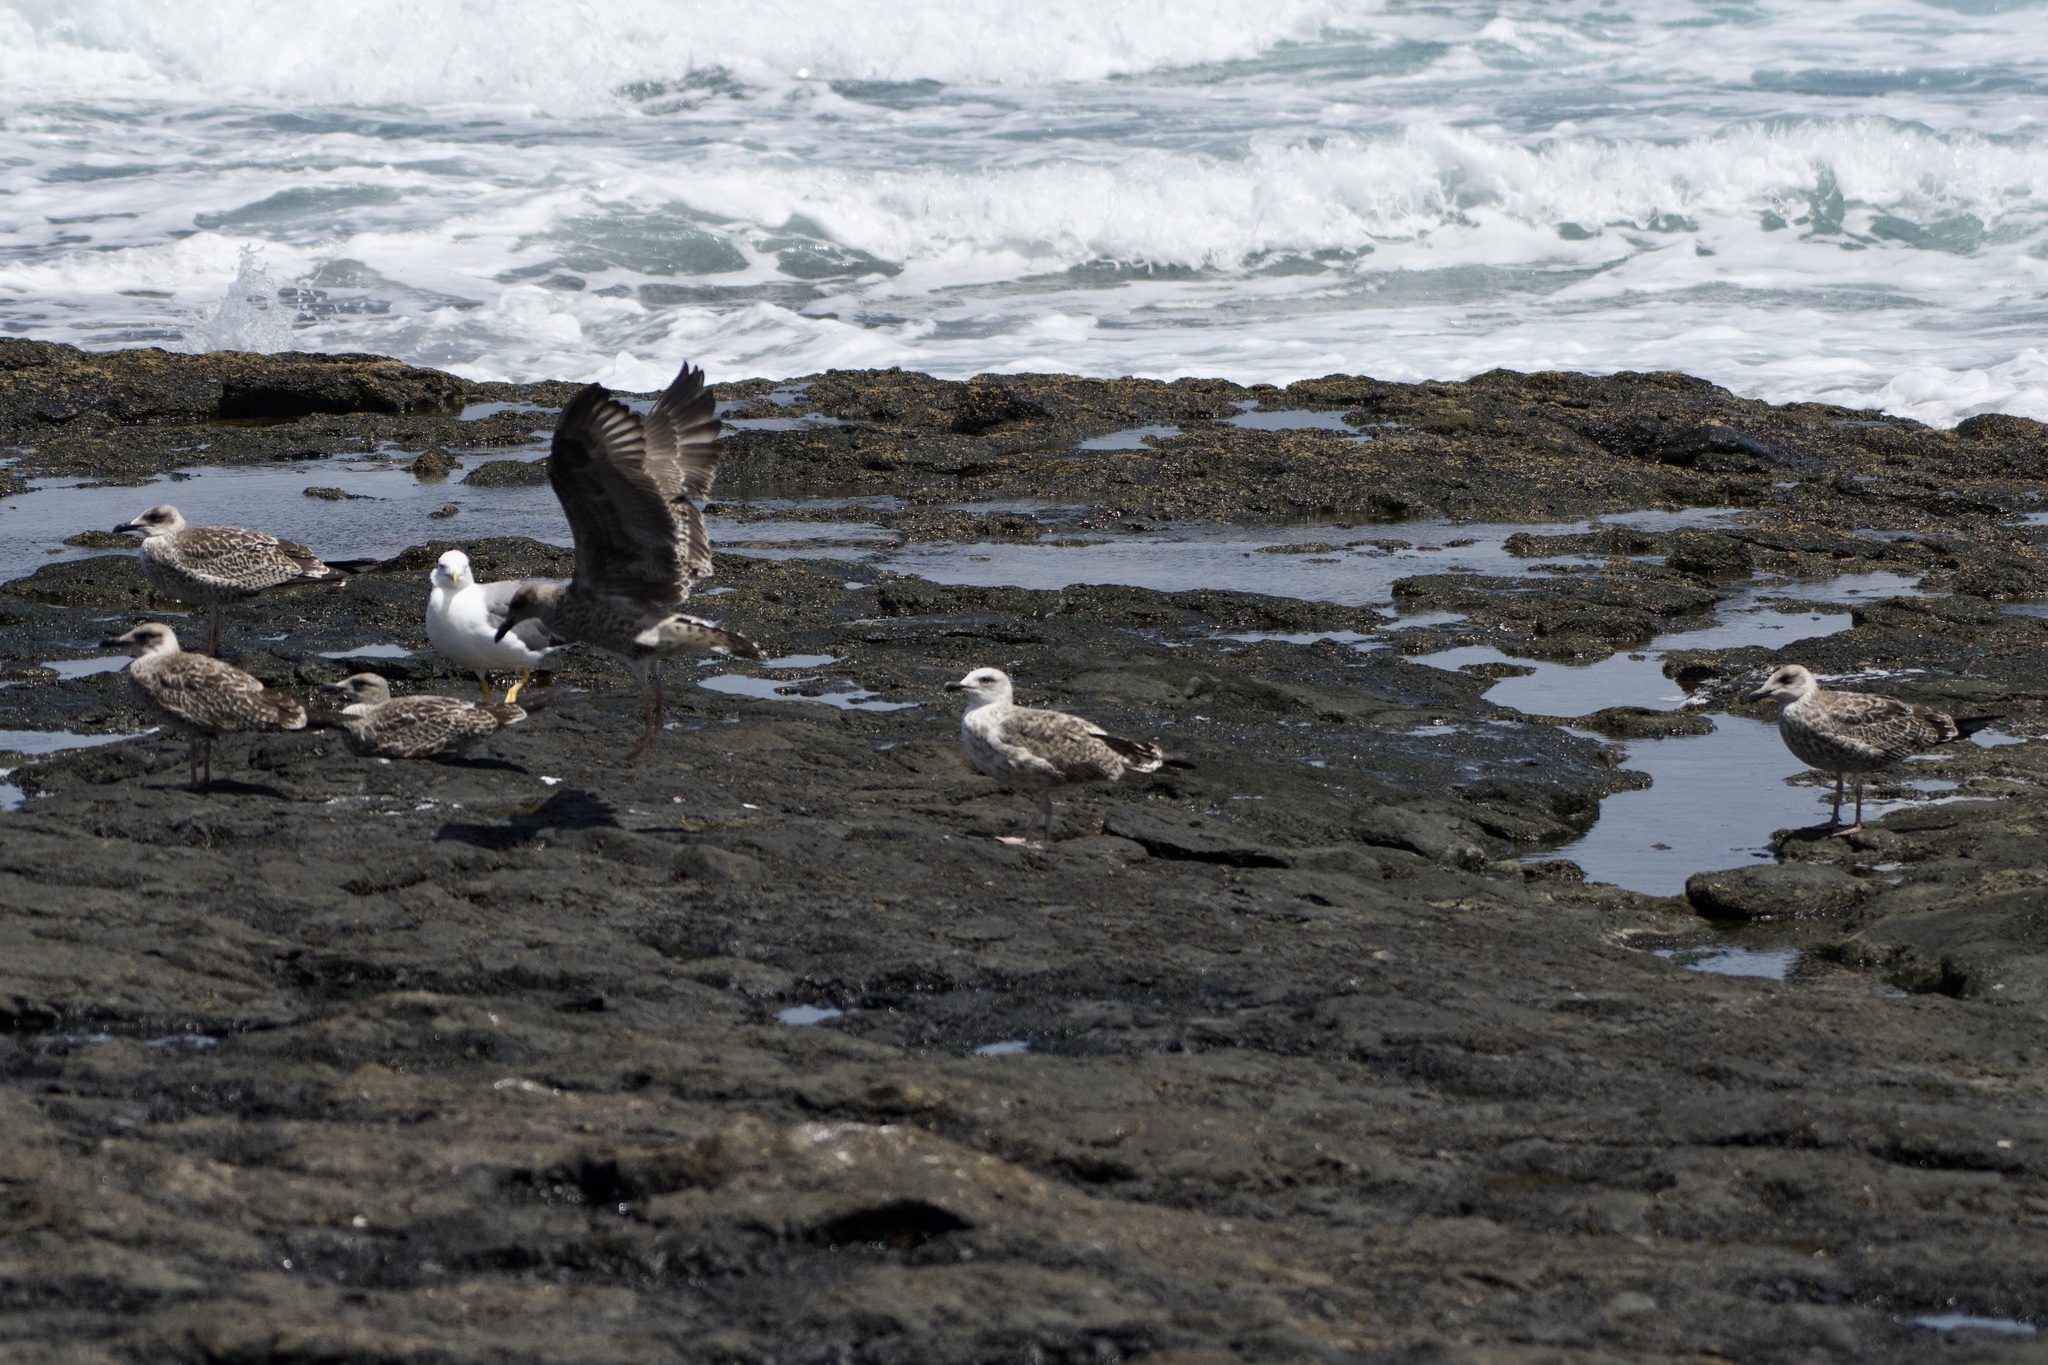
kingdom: Animalia
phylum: Chordata
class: Aves
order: Charadriiformes
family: Laridae
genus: Larus
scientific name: Larus michahellis
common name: Yellow-legged gull
